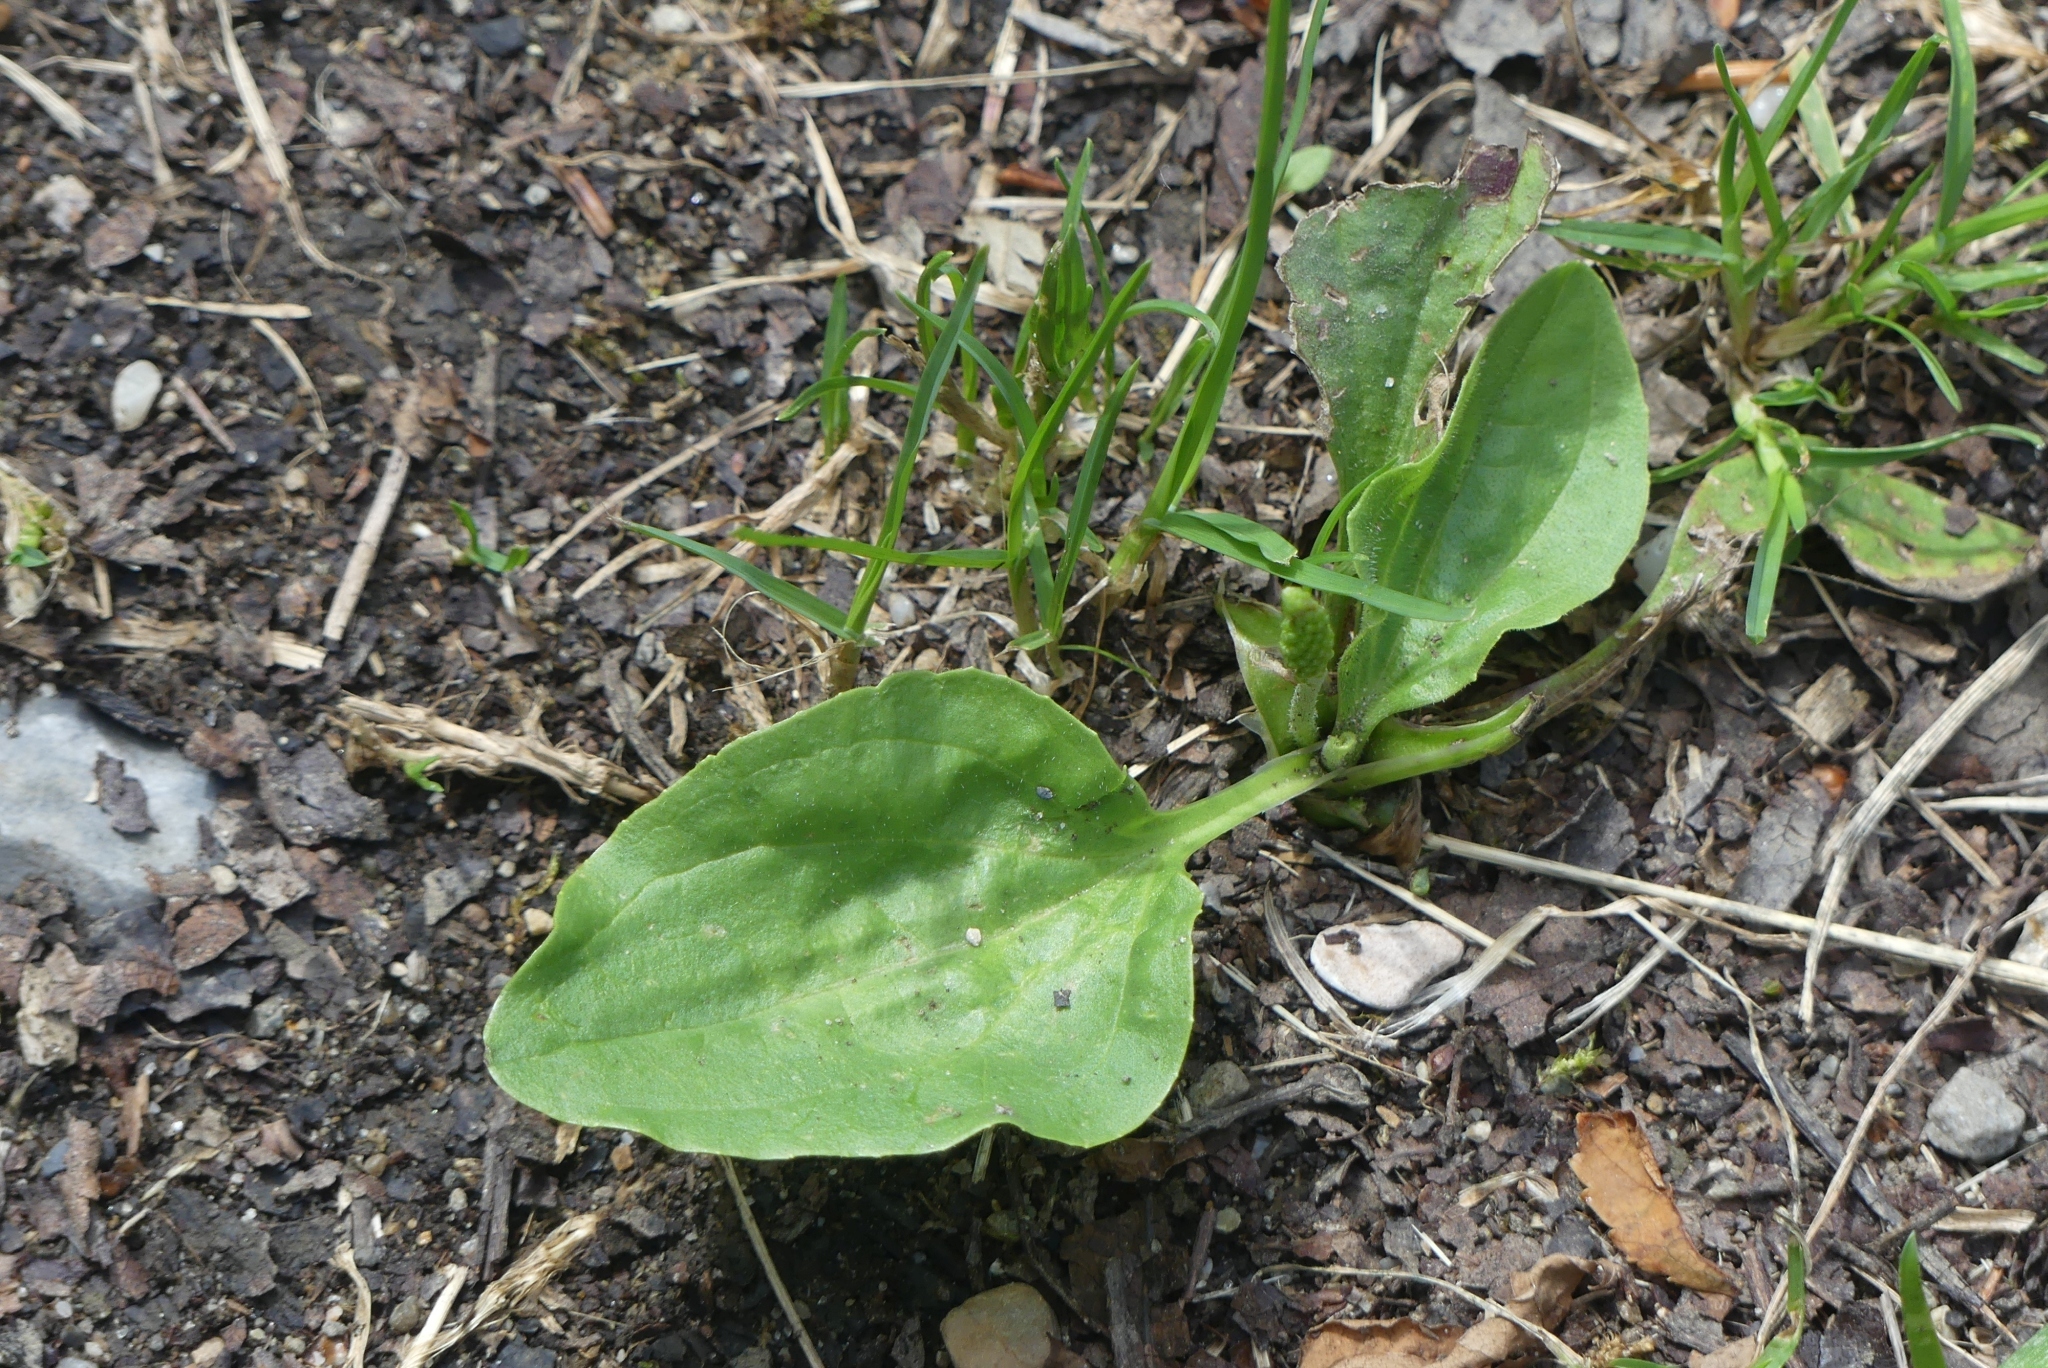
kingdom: Plantae
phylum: Tracheophyta
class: Magnoliopsida
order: Lamiales
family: Plantaginaceae
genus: Plantago
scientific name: Plantago major
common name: Common plantain
